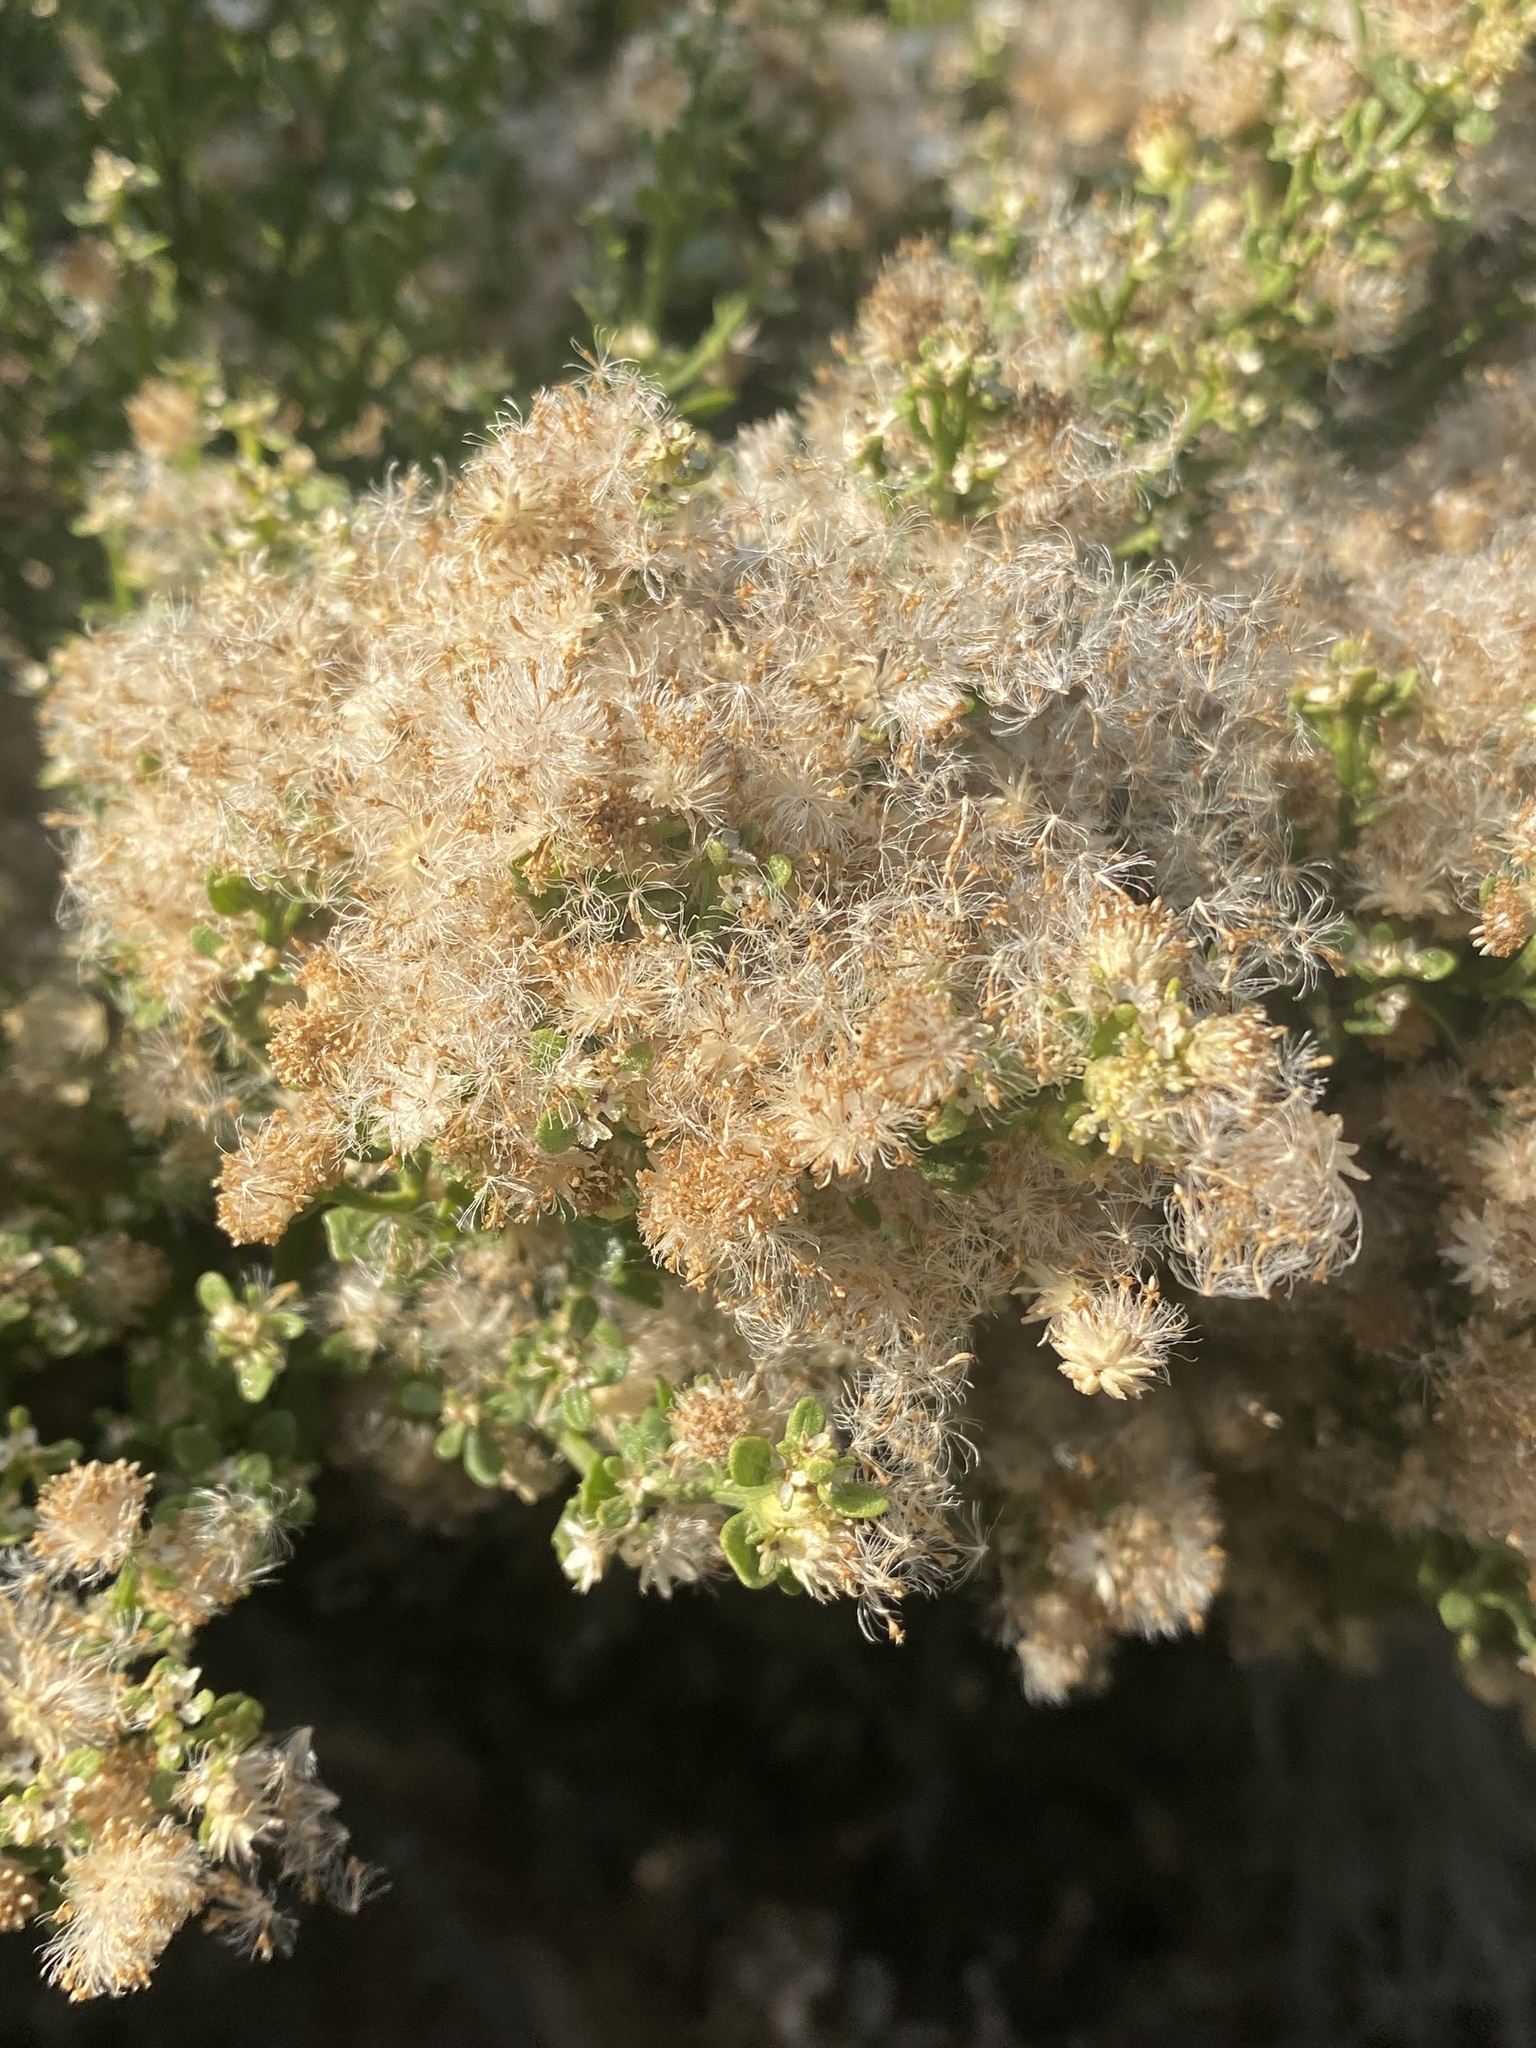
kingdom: Plantae
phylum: Tracheophyta
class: Magnoliopsida
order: Asterales
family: Asteraceae
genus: Baccharis
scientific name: Baccharis pilularis
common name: Coyotebrush
